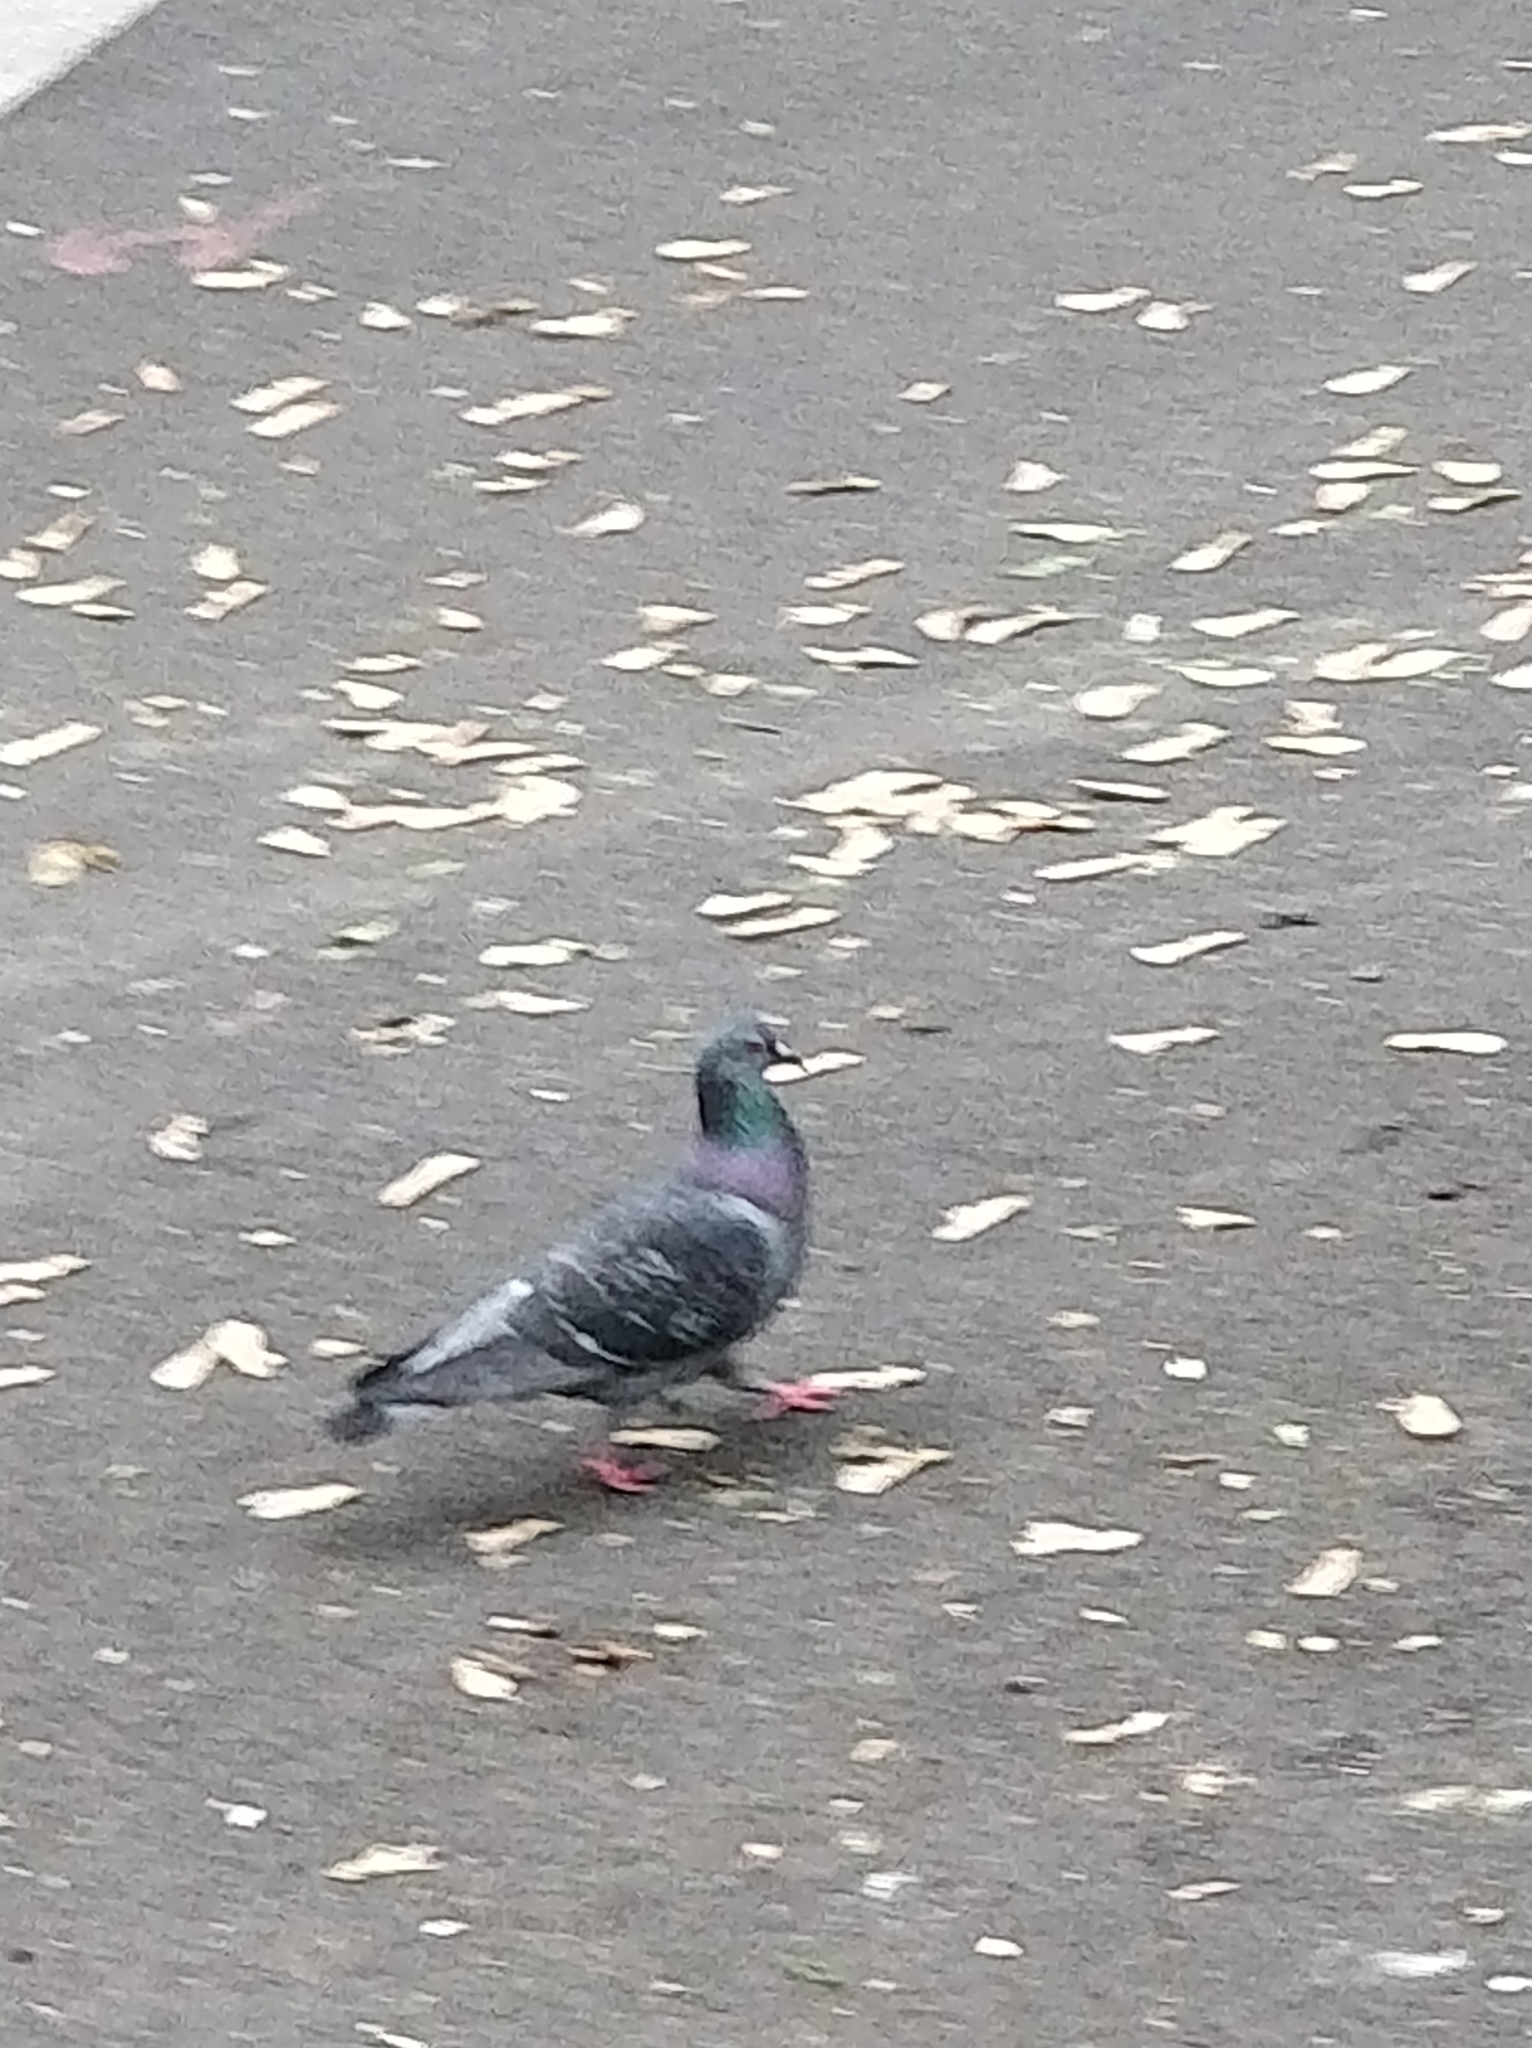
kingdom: Animalia
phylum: Chordata
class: Aves
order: Columbiformes
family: Columbidae
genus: Columba
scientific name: Columba livia
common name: Rock pigeon
